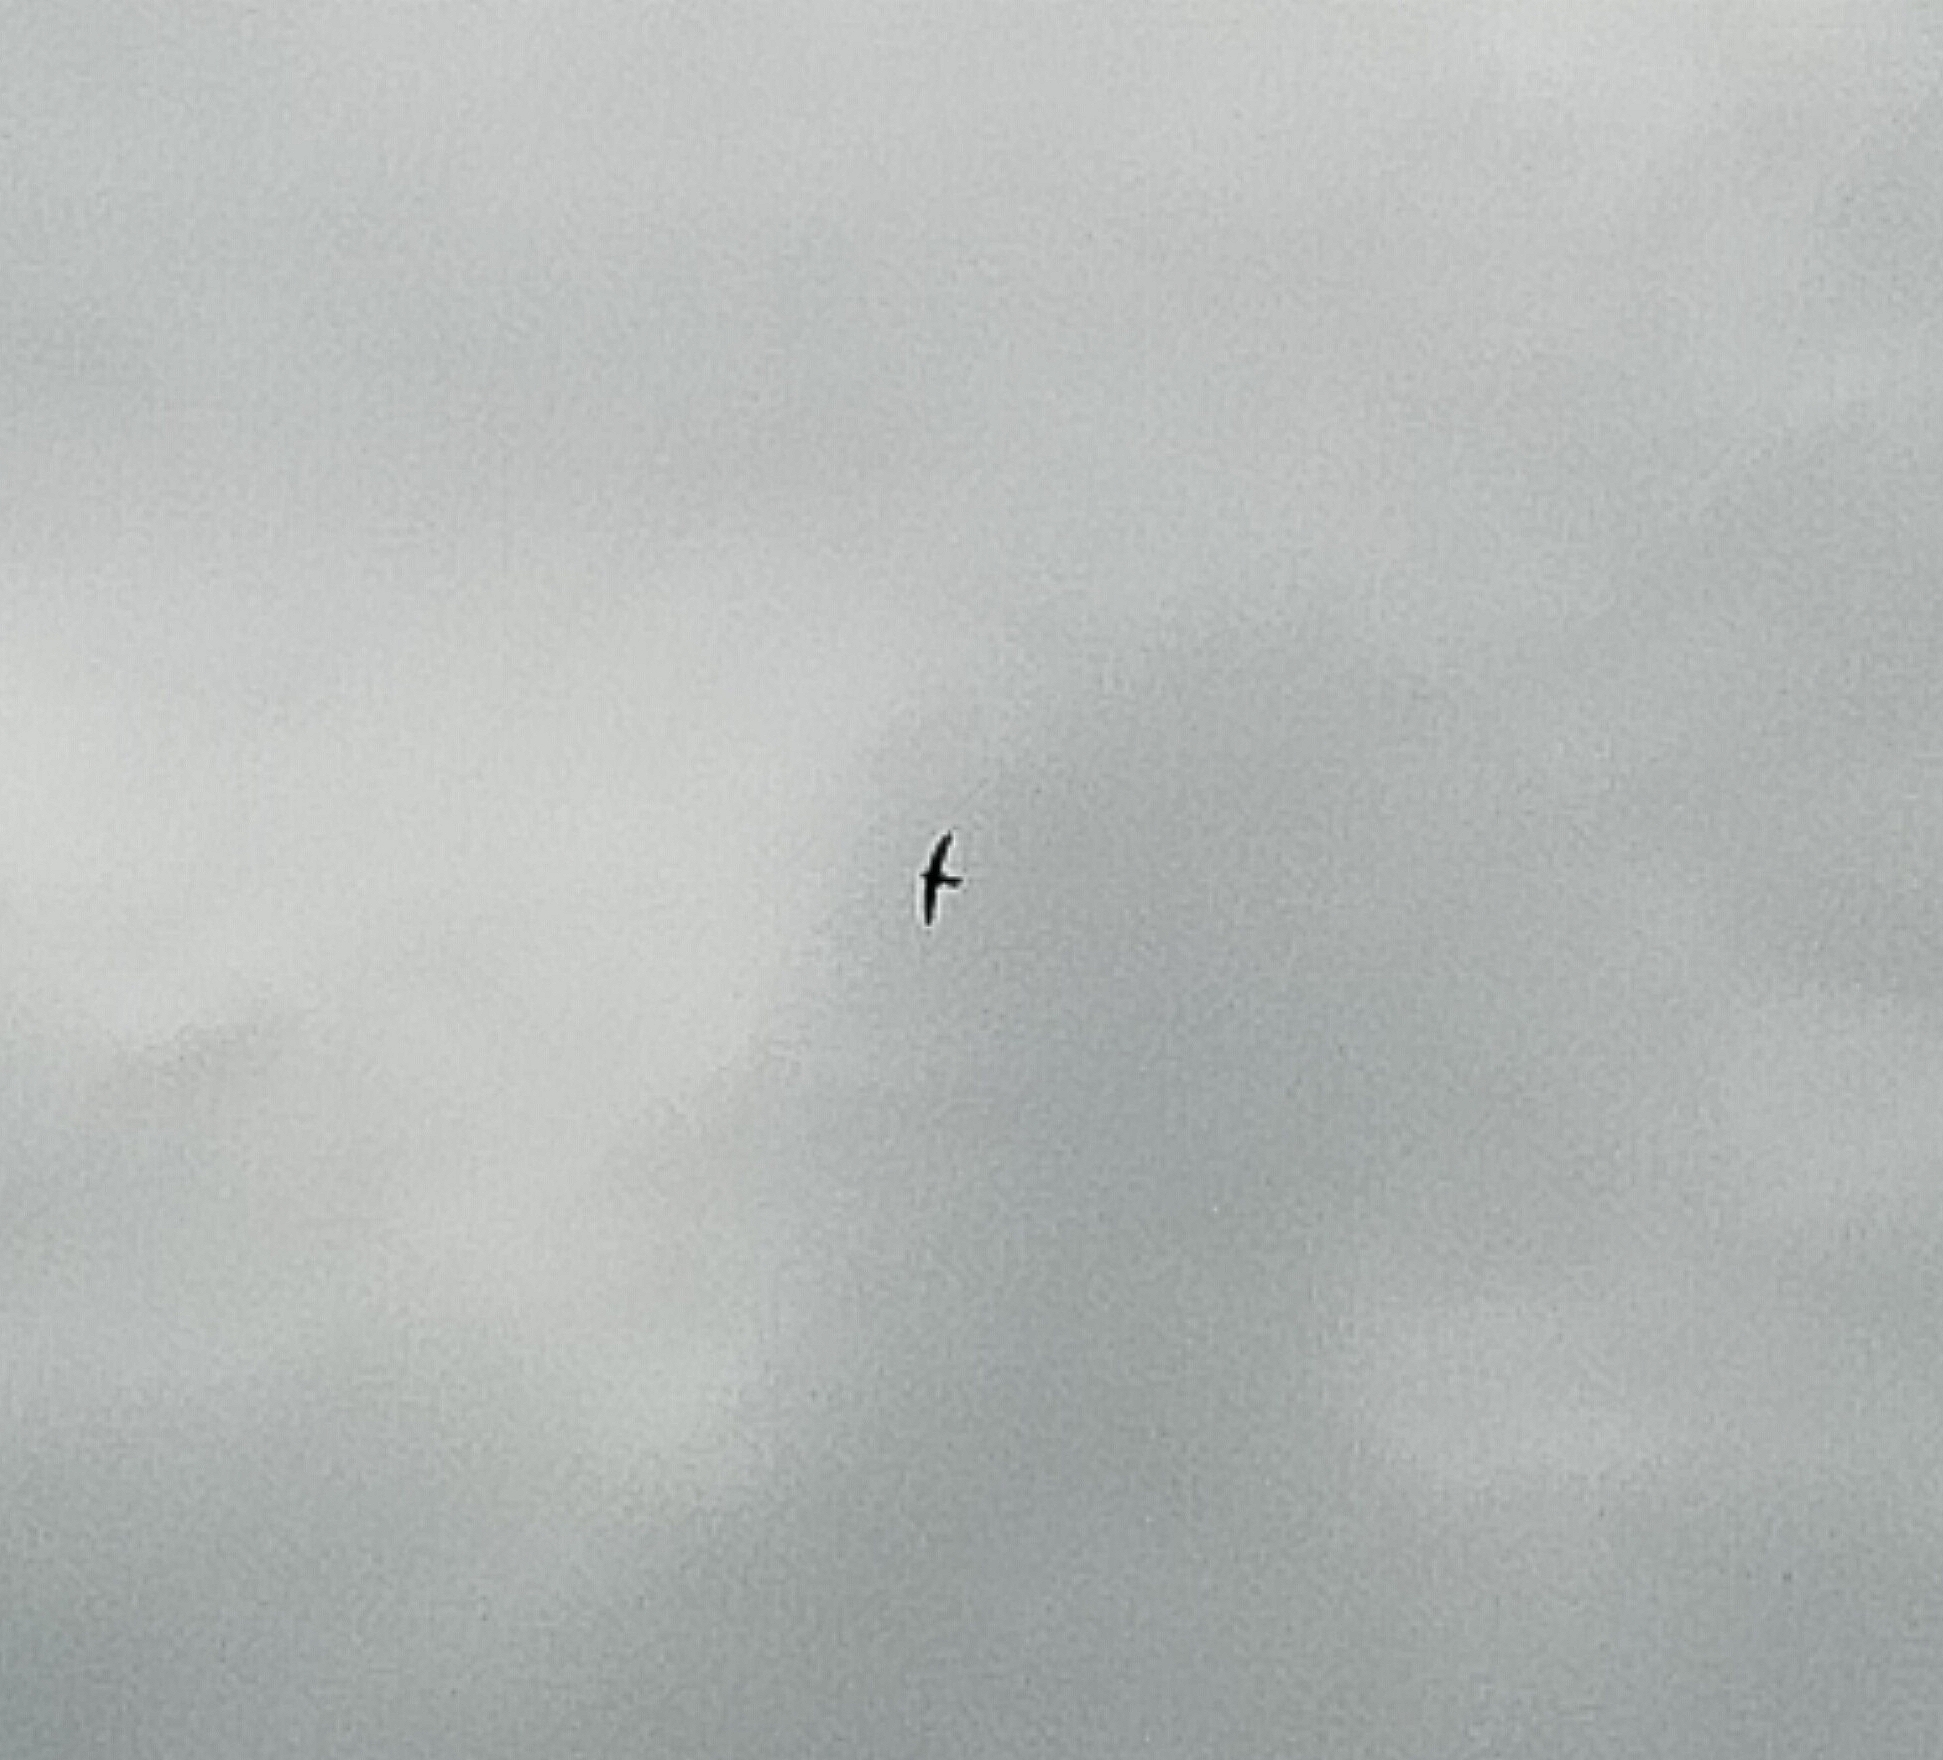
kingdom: Animalia
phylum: Chordata
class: Aves
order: Apodiformes
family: Apodidae
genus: Apus
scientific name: Apus apus
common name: Common swift
